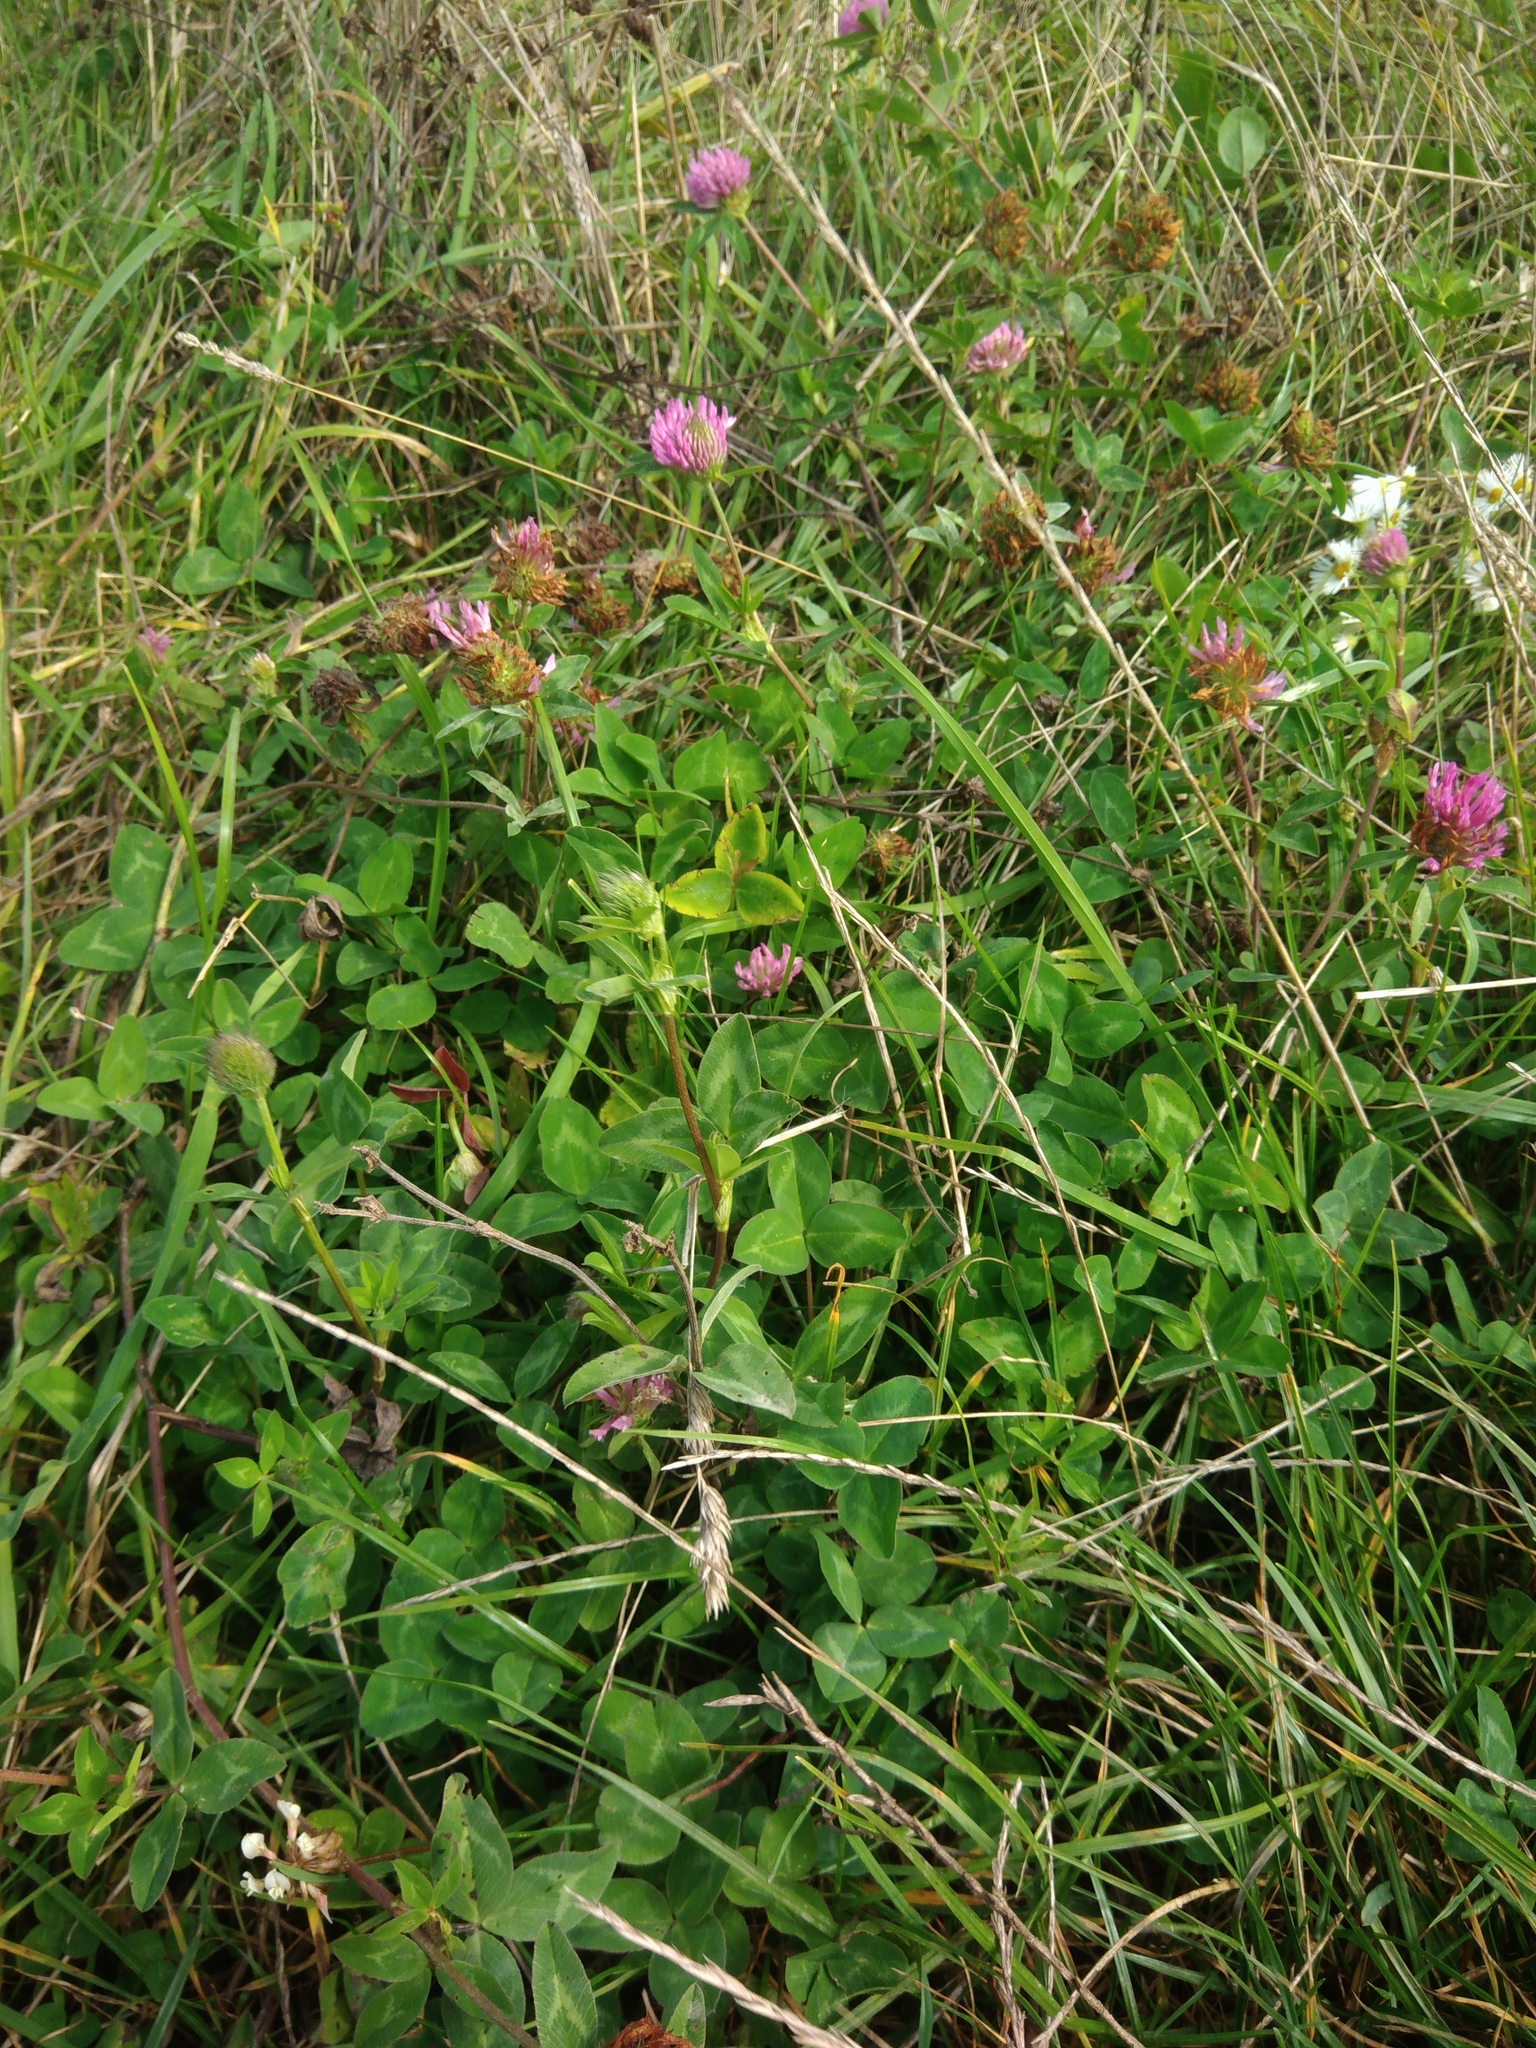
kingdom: Plantae
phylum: Tracheophyta
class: Magnoliopsida
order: Fabales
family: Fabaceae
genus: Trifolium
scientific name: Trifolium pratense
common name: Red clover
